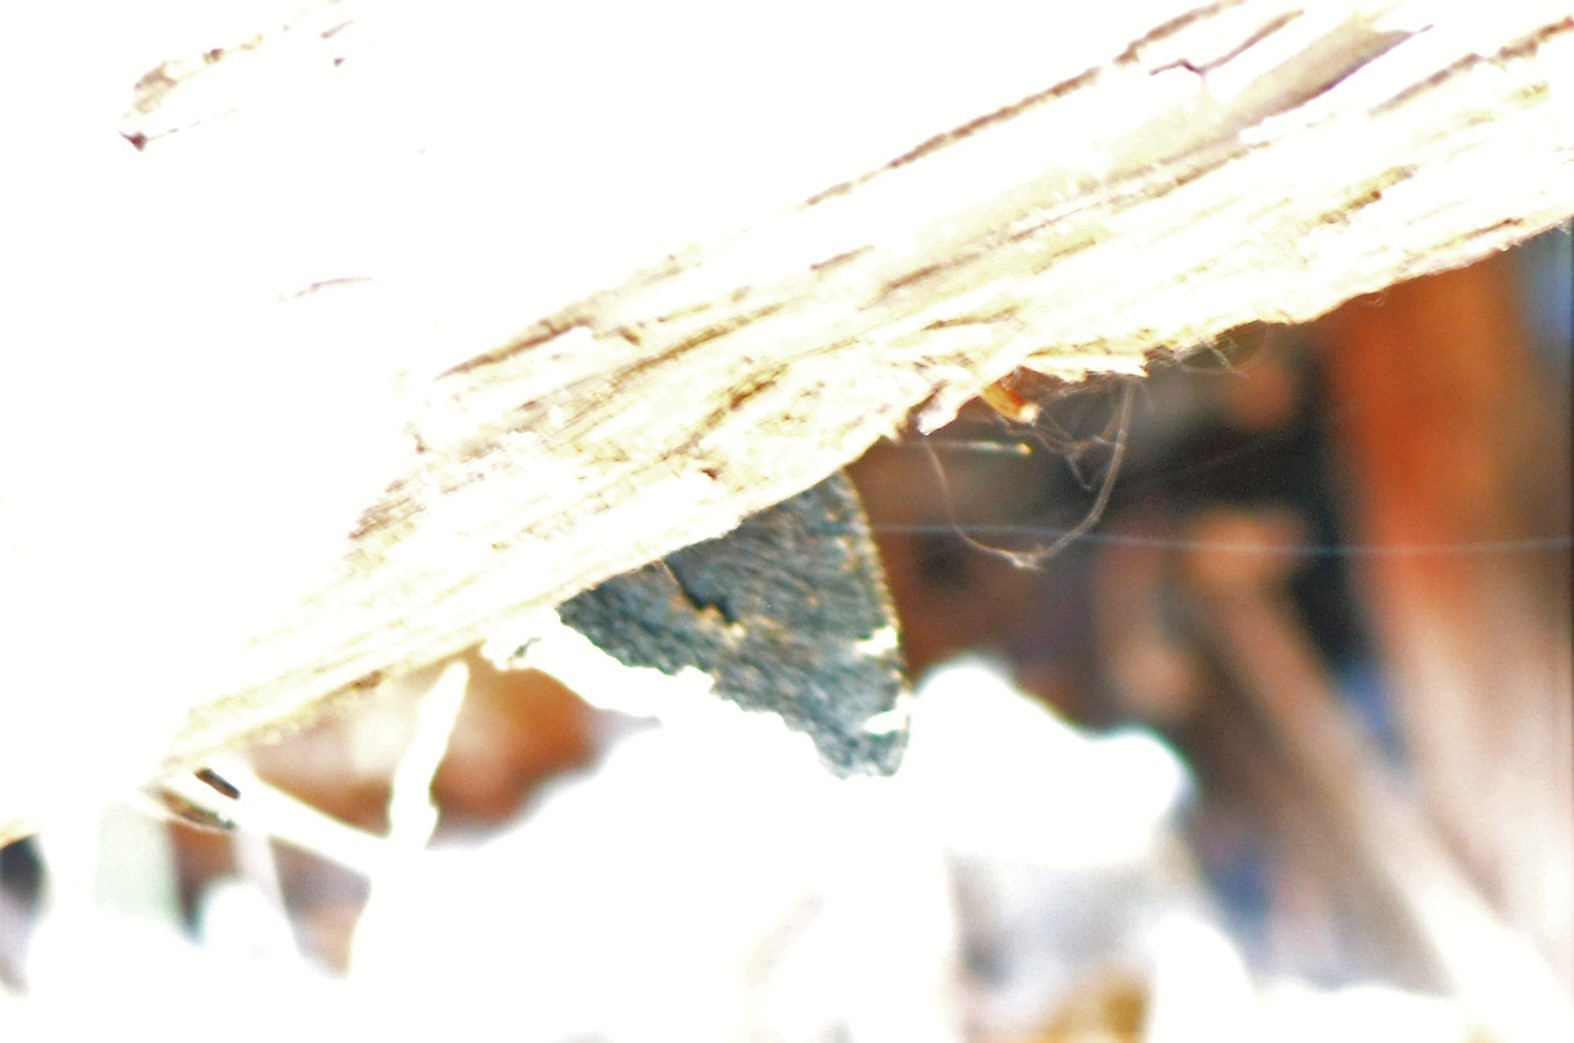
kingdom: Animalia
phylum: Arthropoda
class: Insecta
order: Lepidoptera
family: Nymphalidae
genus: Nymphalis
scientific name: Nymphalis antiopa
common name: Camberwell beauty
